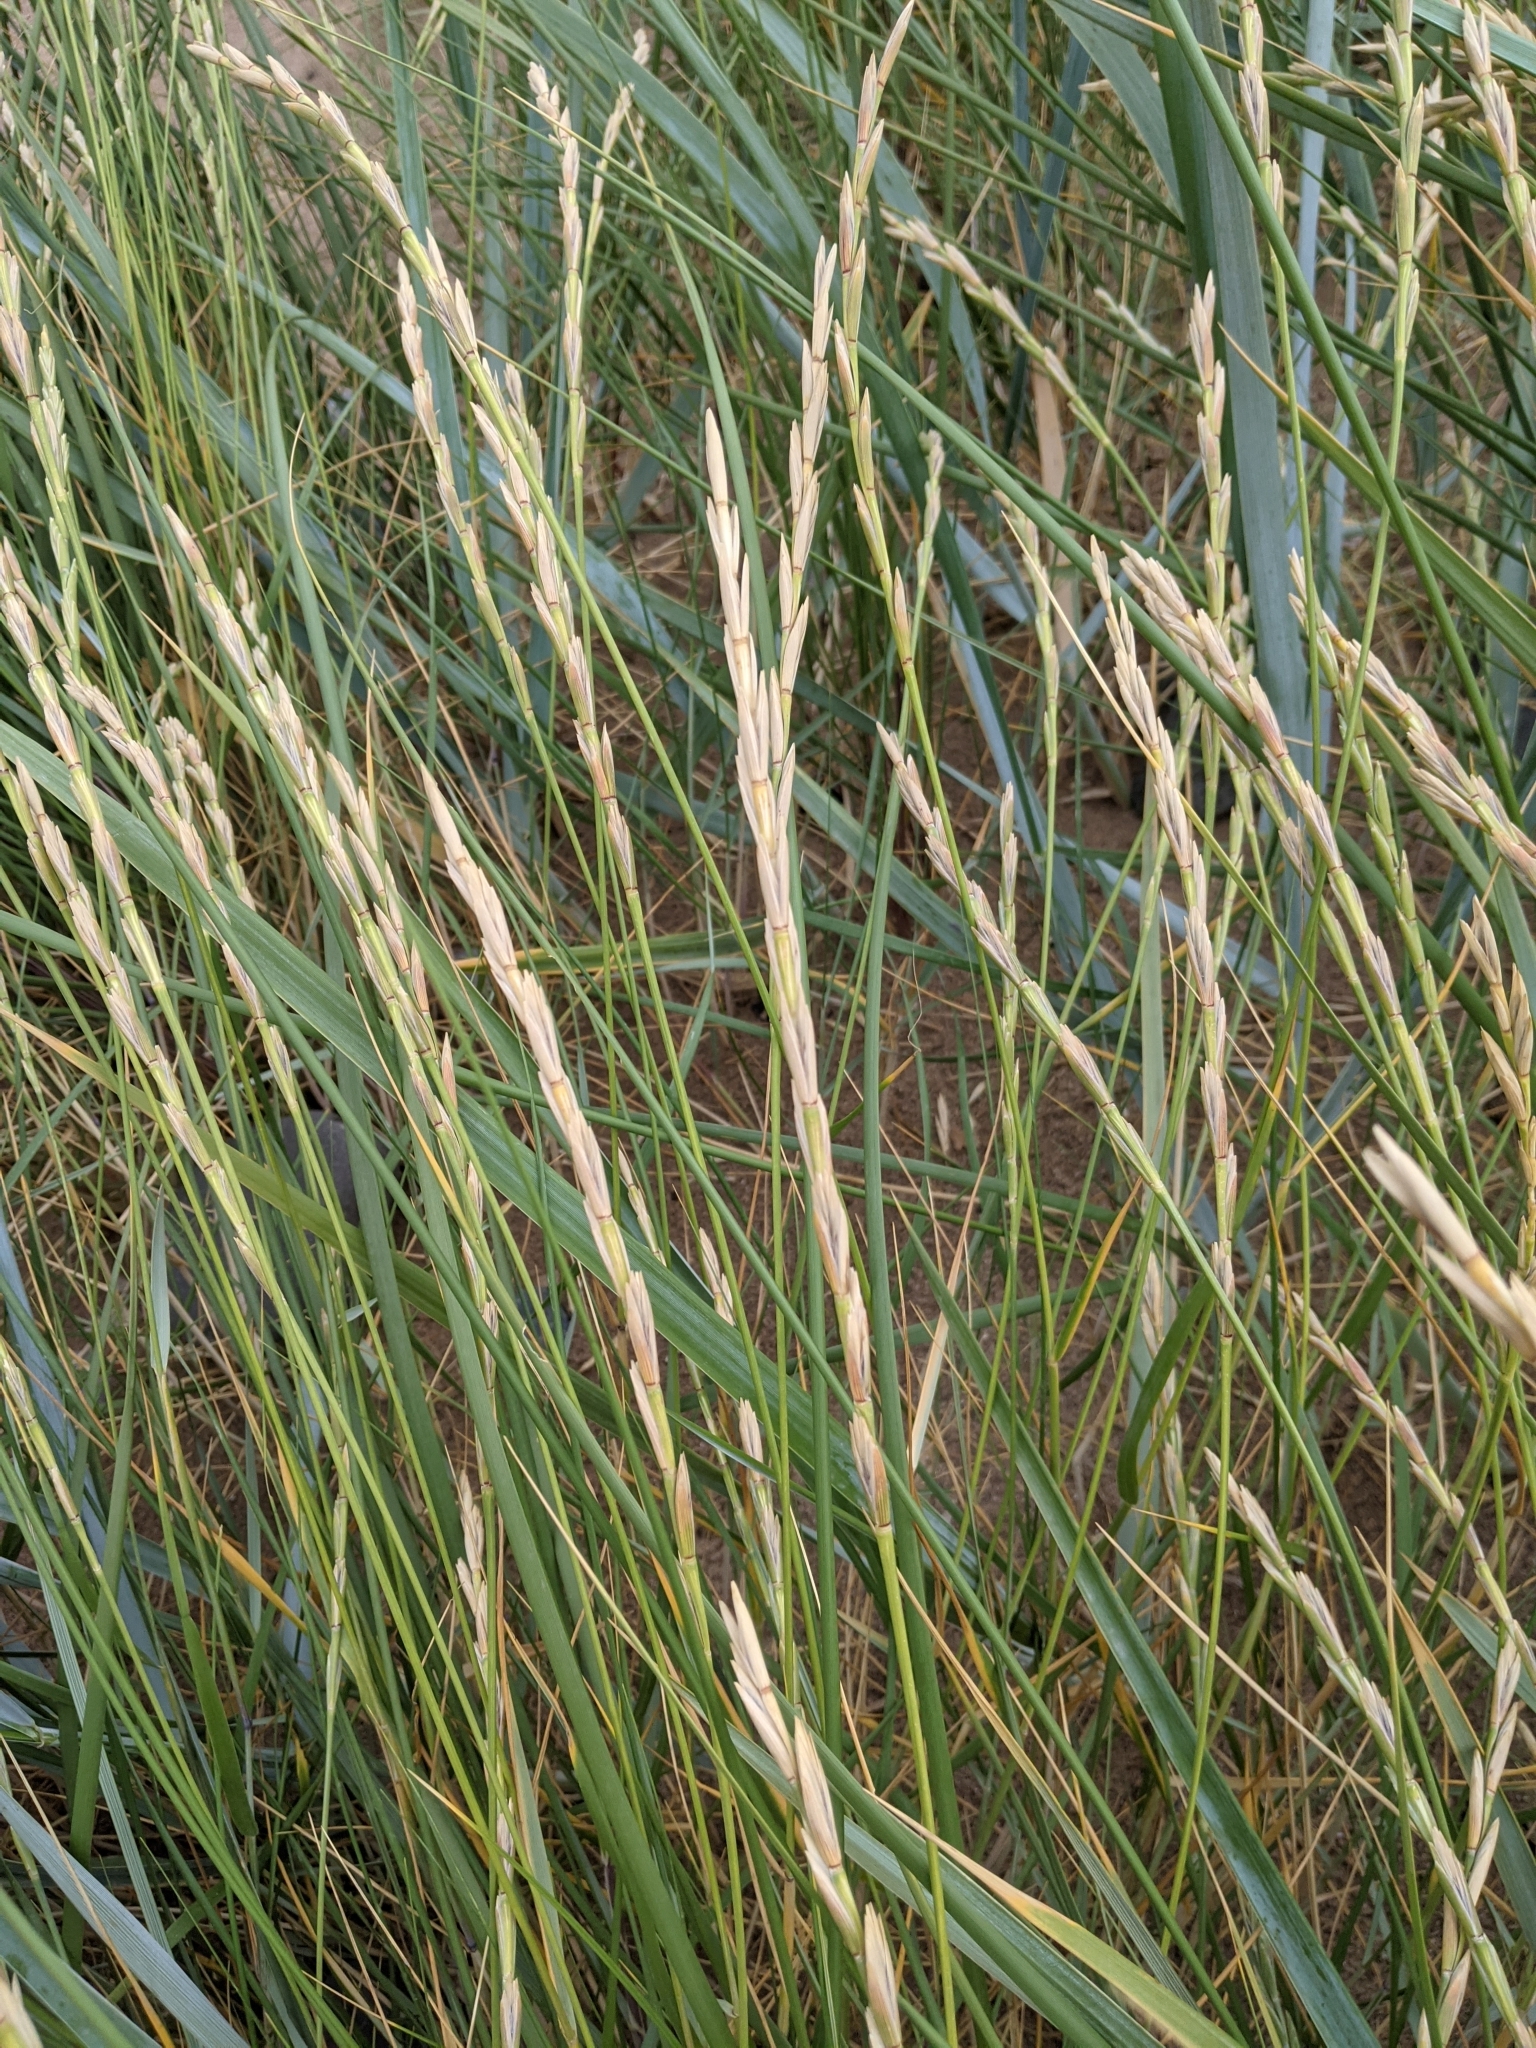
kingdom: Plantae
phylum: Tracheophyta
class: Liliopsida
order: Poales
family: Poaceae
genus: Leymus
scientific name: Leymus arenarius
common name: Lyme-grass
